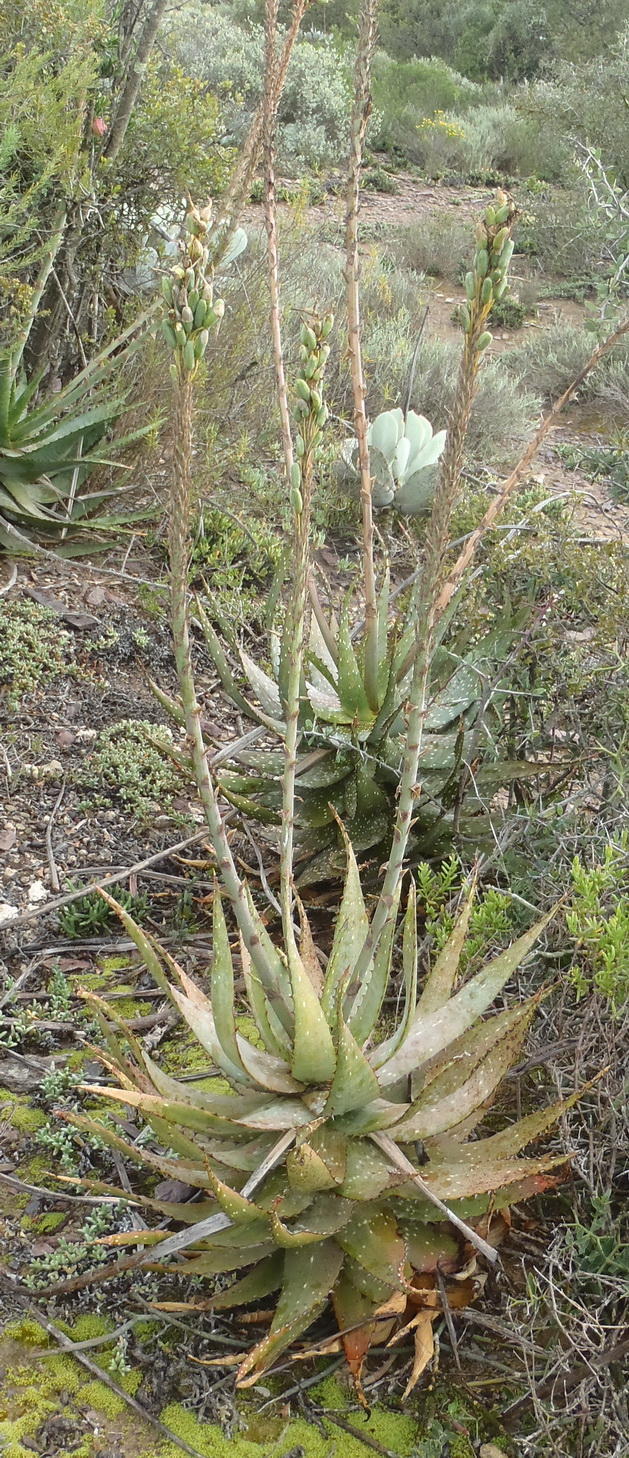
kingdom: Plantae
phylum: Tracheophyta
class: Liliopsida
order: Asparagales
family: Asphodelaceae
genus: Aloe
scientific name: Aloe microstigma
